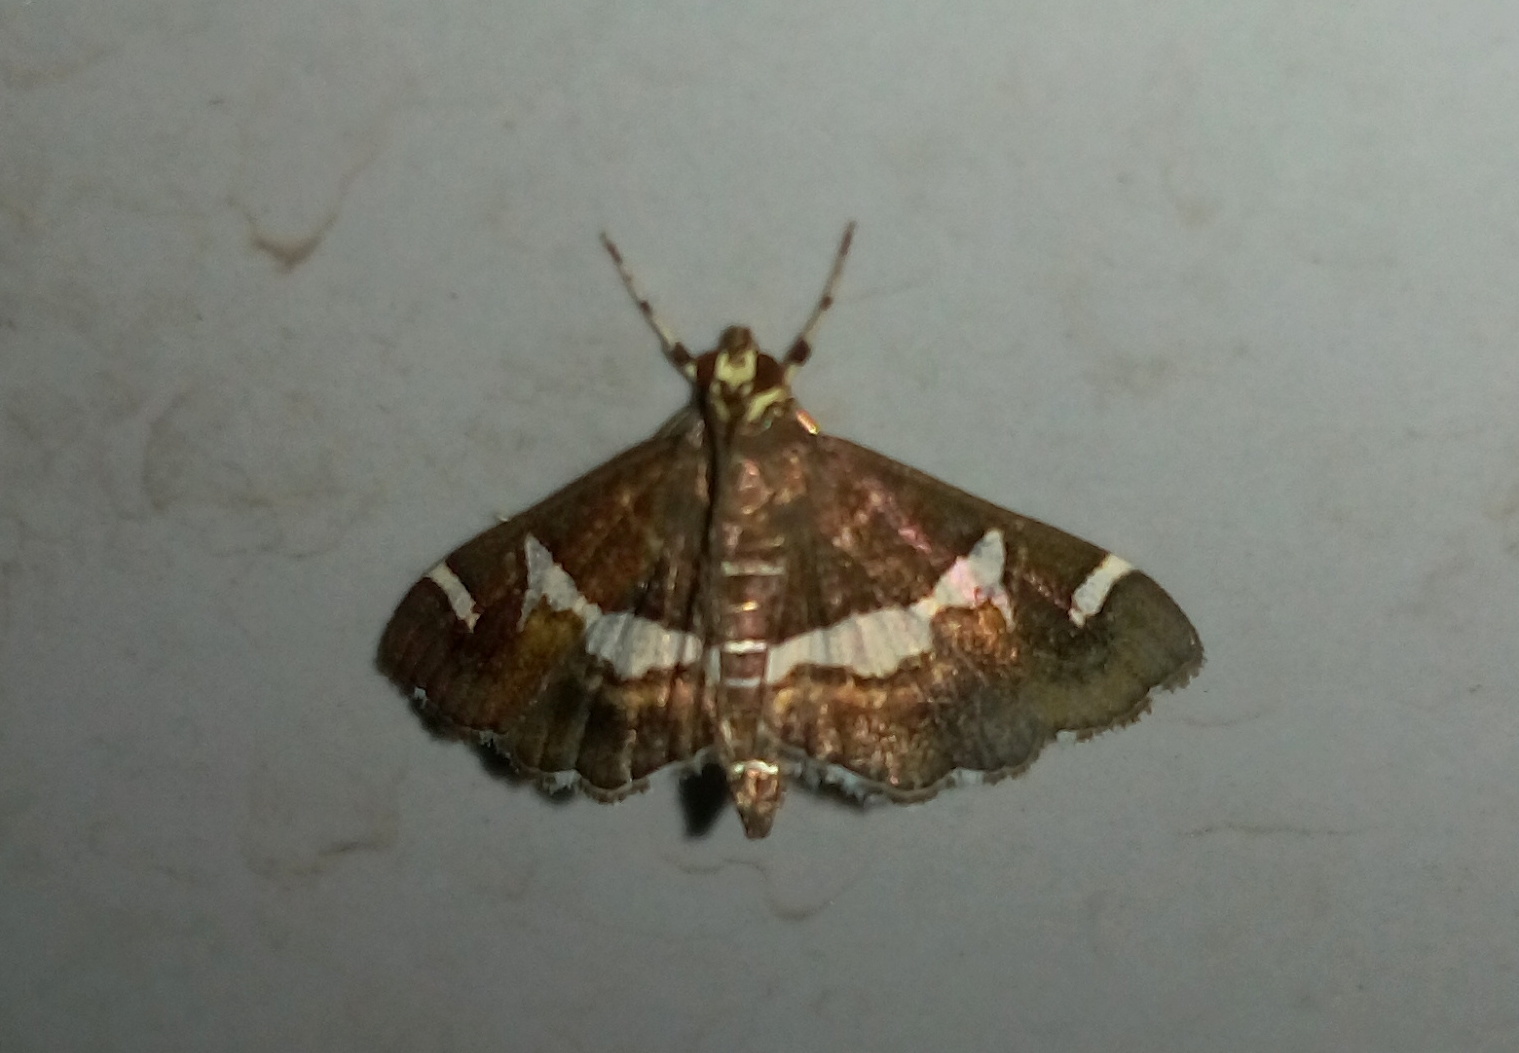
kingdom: Animalia
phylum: Arthropoda
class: Insecta
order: Lepidoptera
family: Crambidae
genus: Spoladea
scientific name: Spoladea recurvalis
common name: Beet webworm moth
